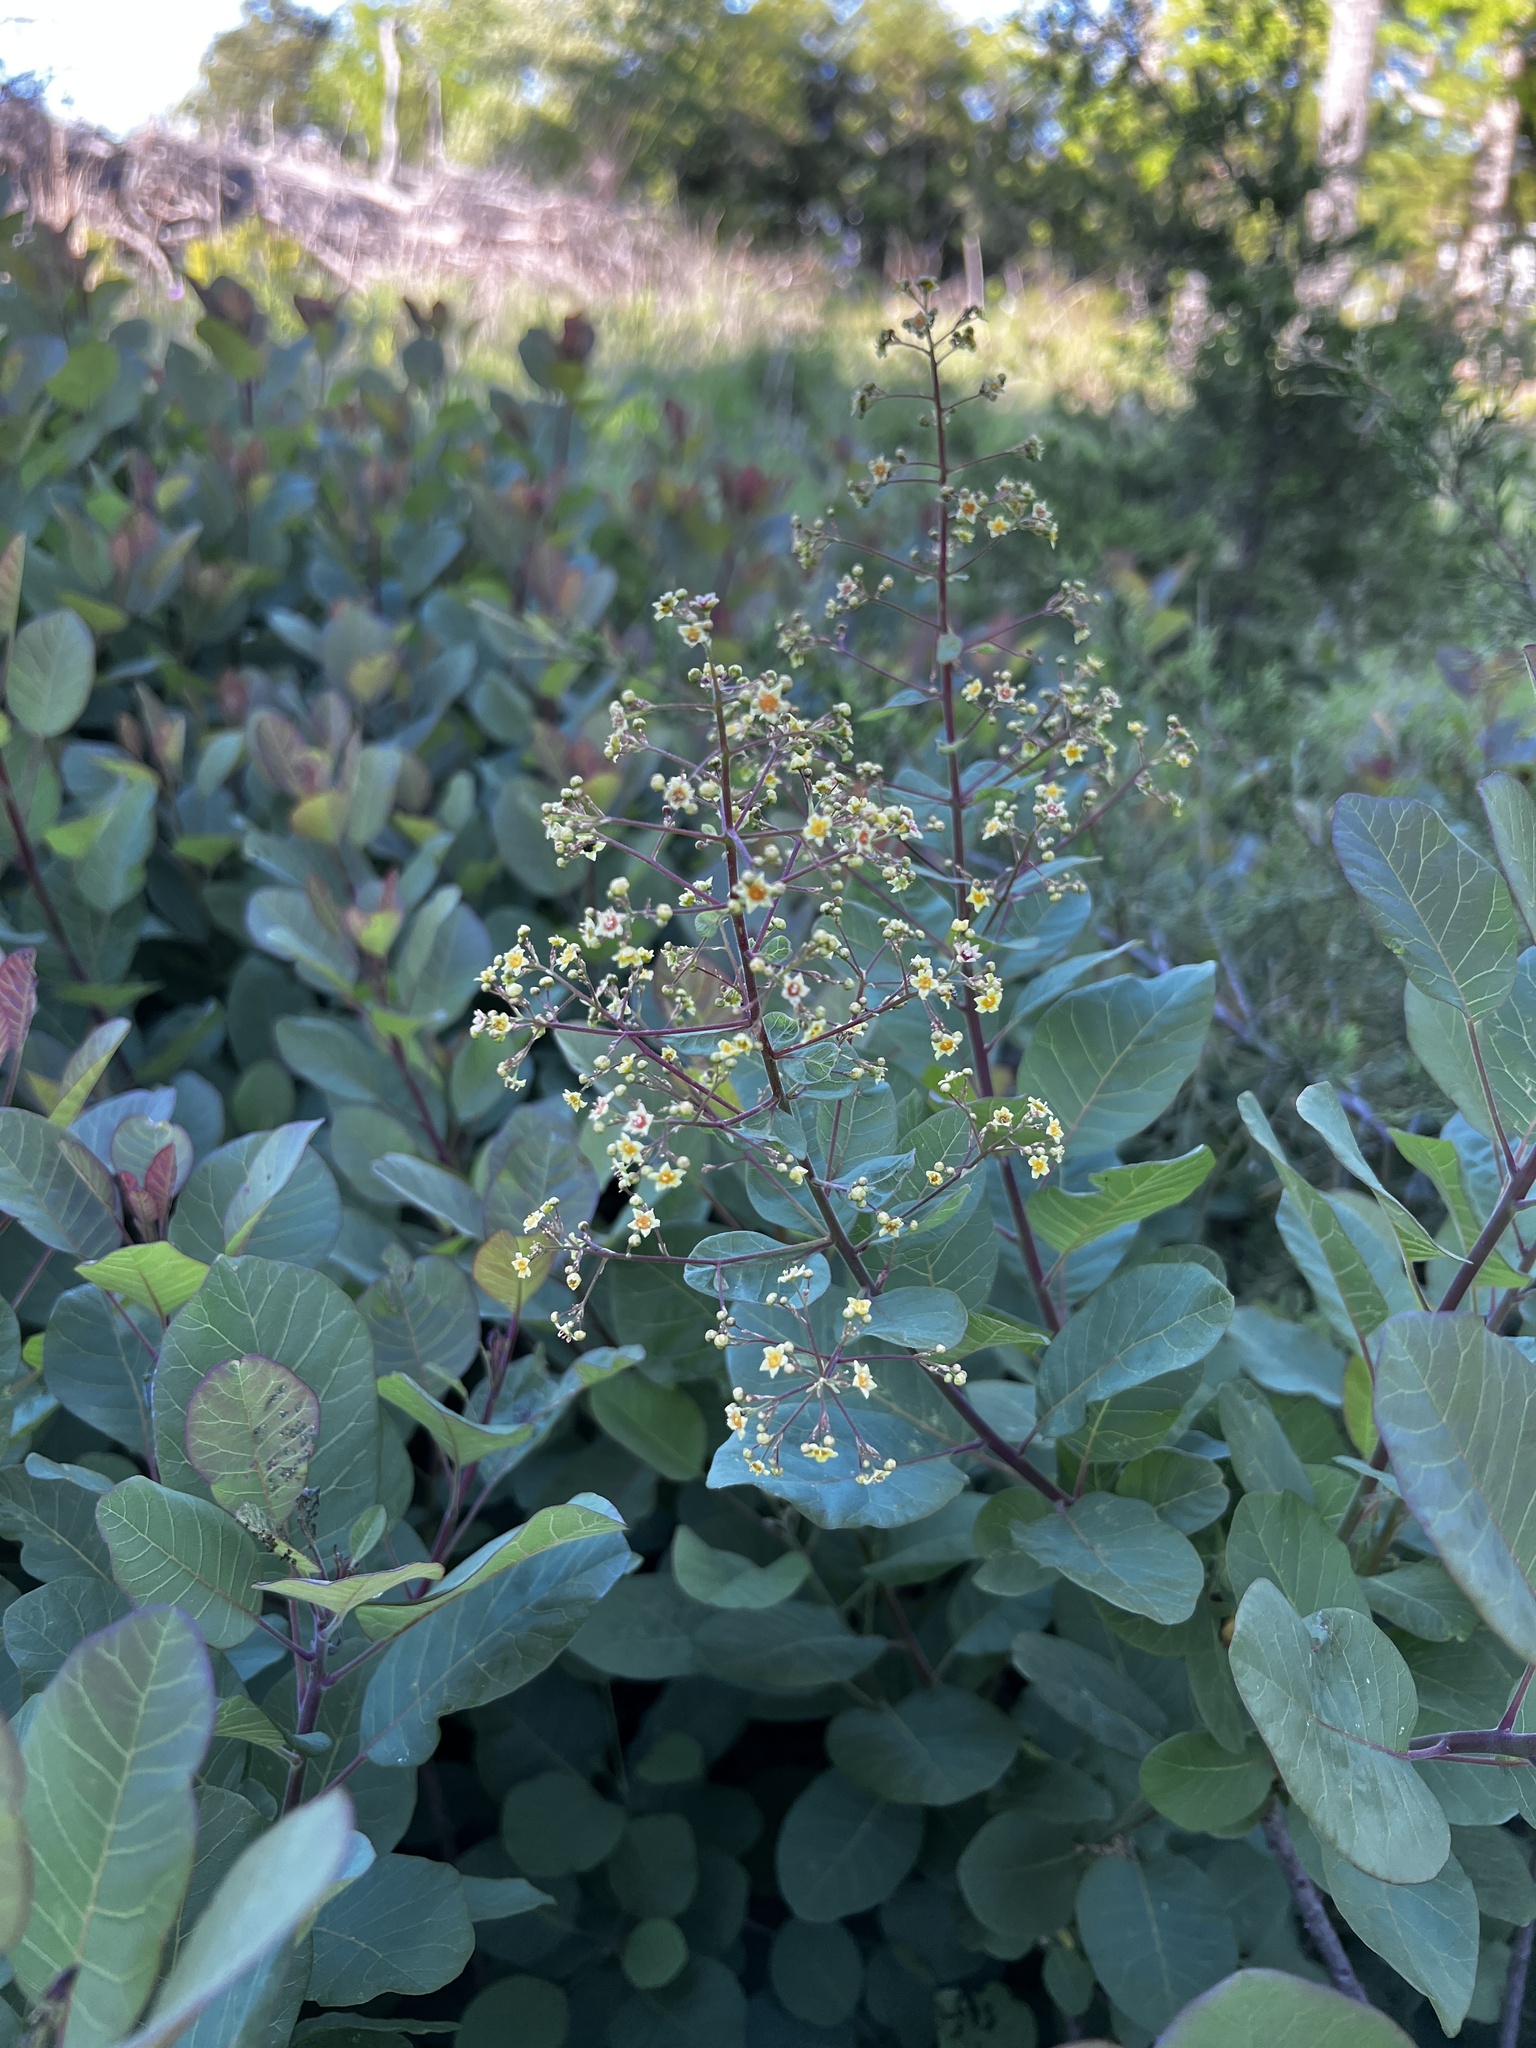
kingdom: Plantae
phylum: Tracheophyta
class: Magnoliopsida
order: Sapindales
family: Anacardiaceae
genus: Cotinus
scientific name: Cotinus obovatus
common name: Chittamwood
